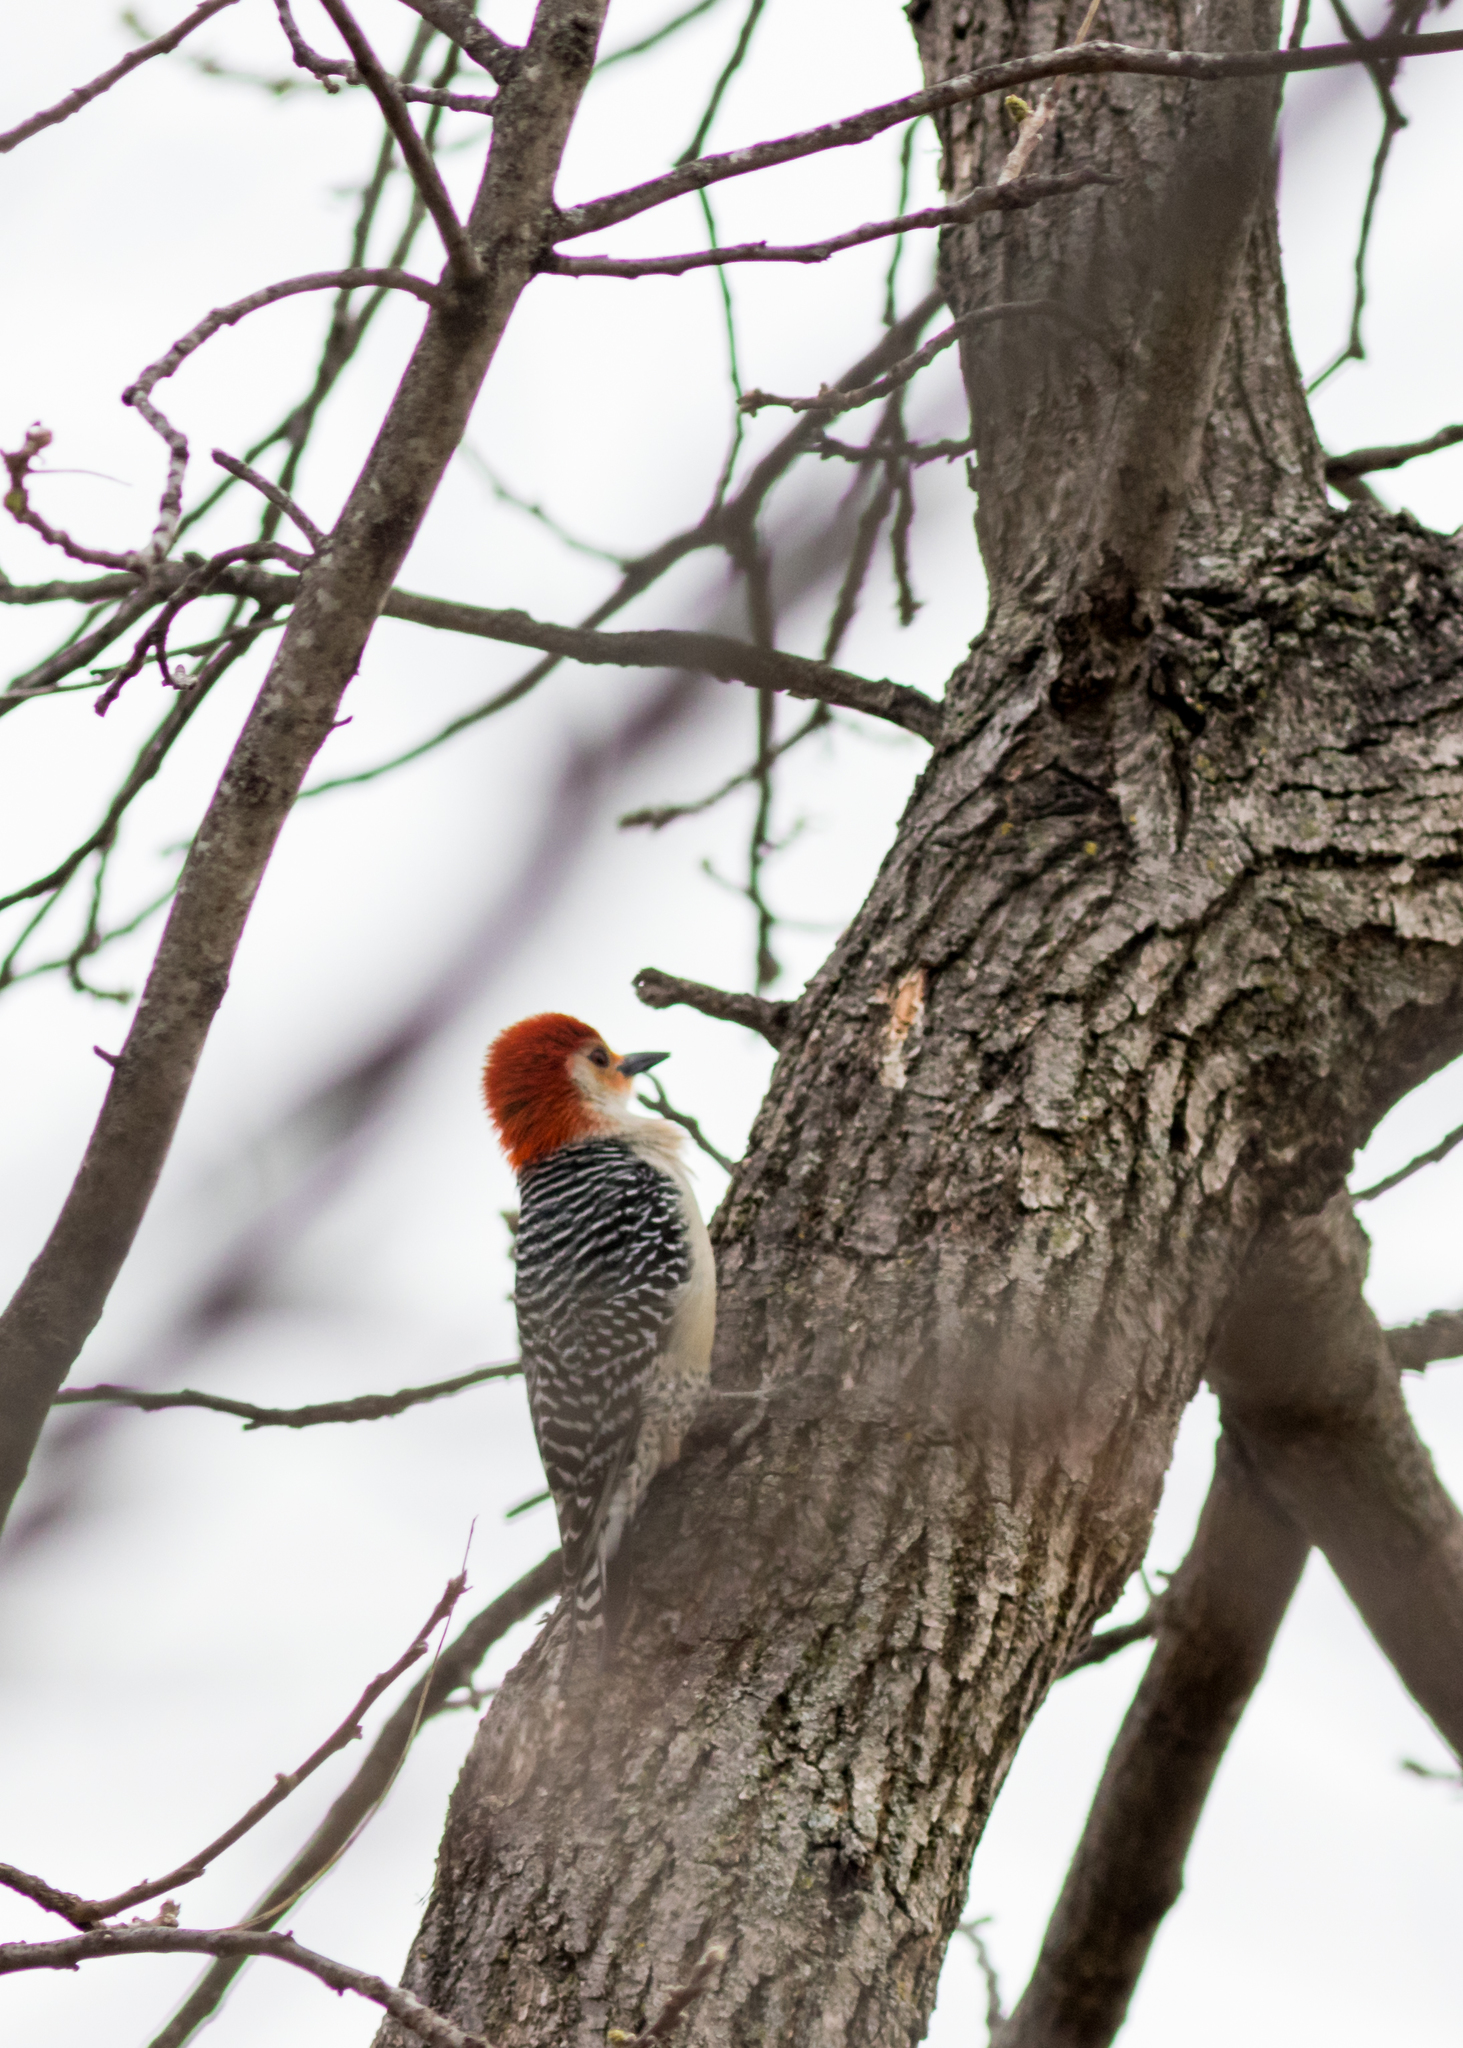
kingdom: Animalia
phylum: Chordata
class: Aves
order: Piciformes
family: Picidae
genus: Melanerpes
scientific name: Melanerpes carolinus
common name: Red-bellied woodpecker
